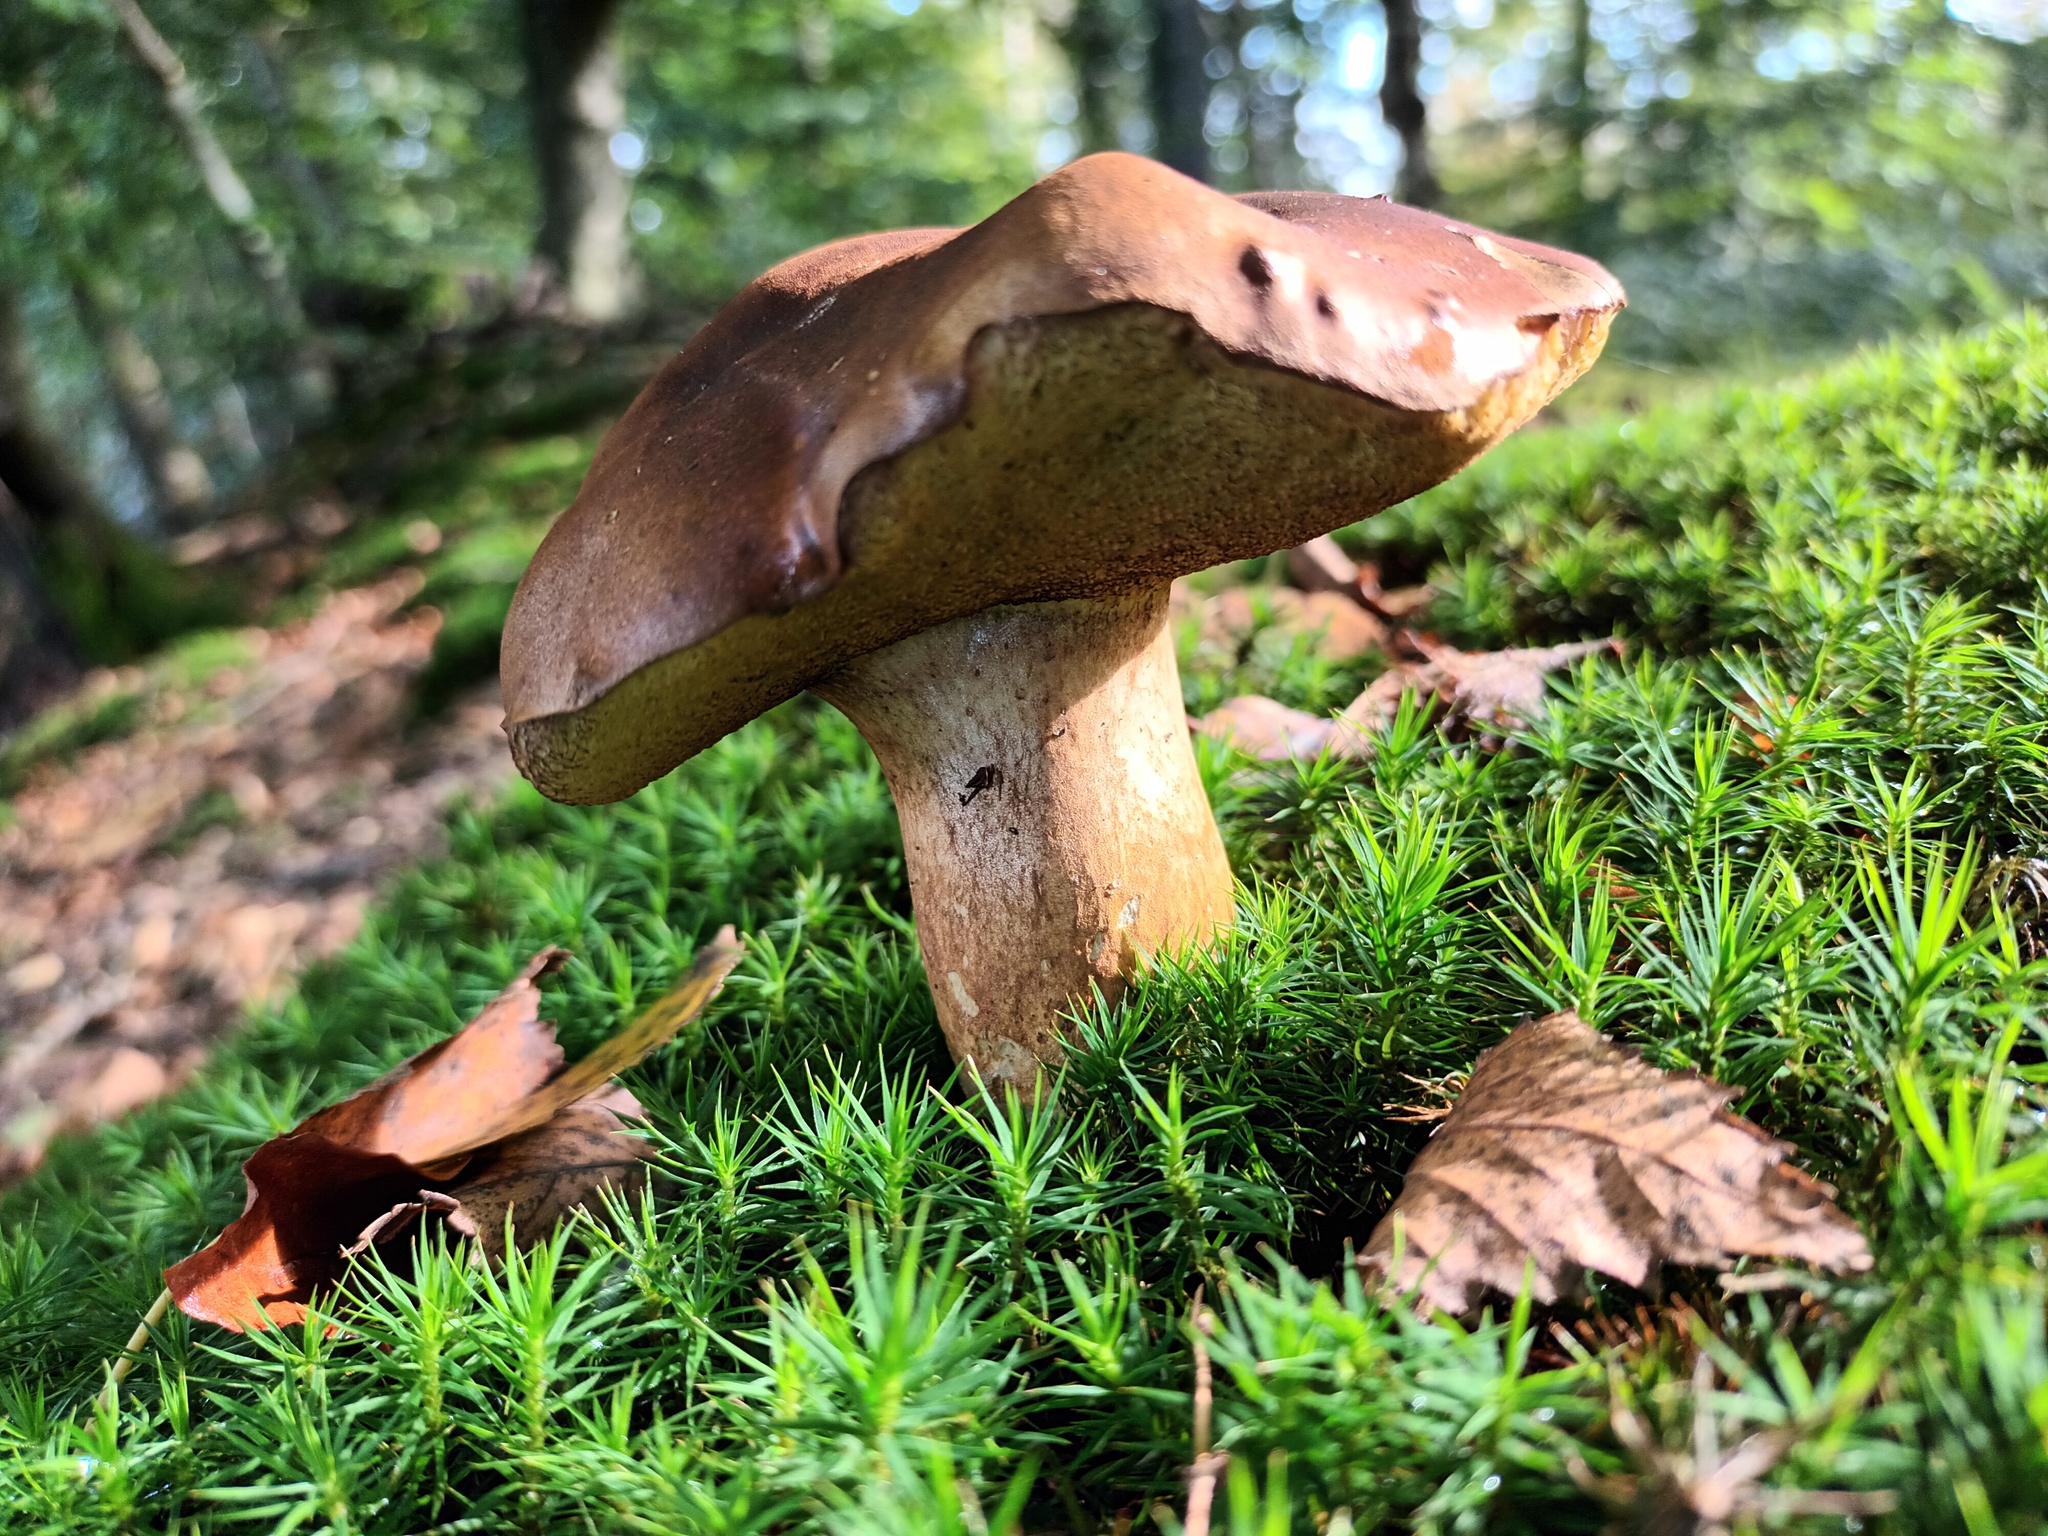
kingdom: Fungi
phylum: Basidiomycota
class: Agaricomycetes
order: Boletales
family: Boletaceae
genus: Imleria
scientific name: Imleria badia
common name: Bay bolete
